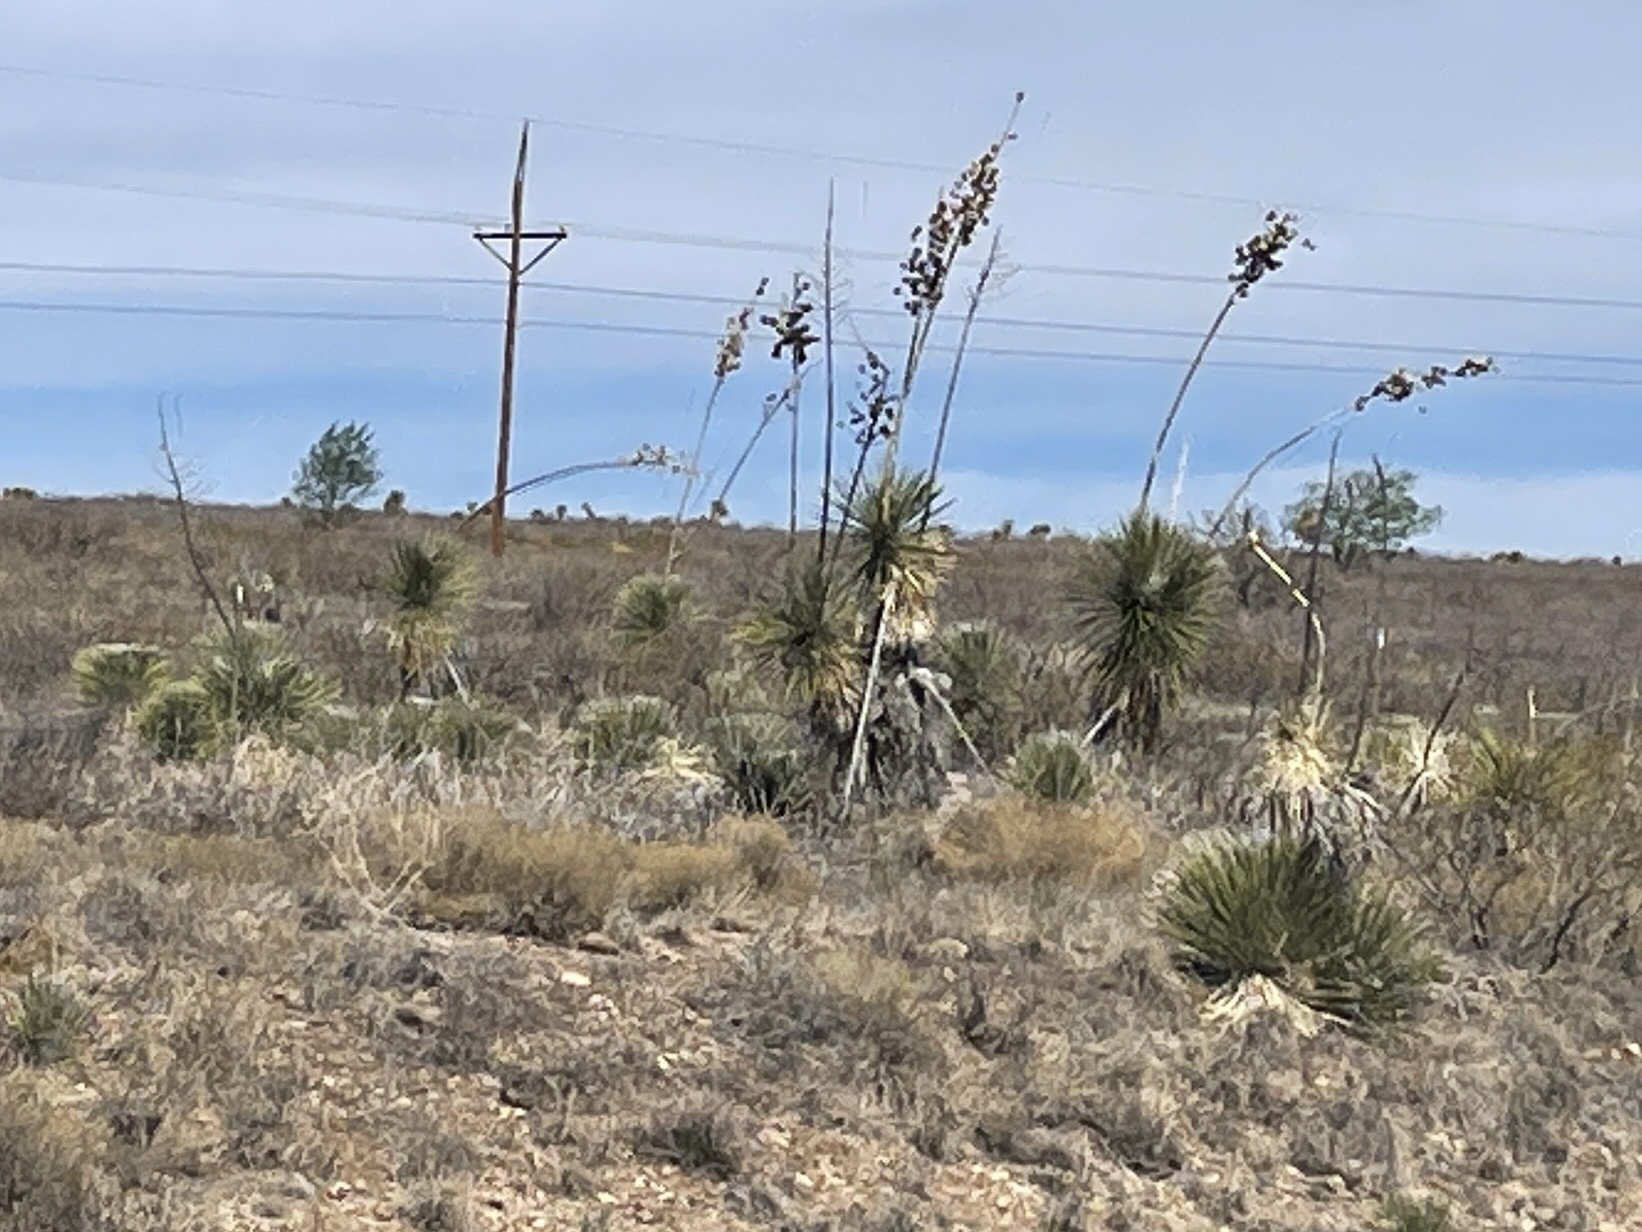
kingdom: Plantae
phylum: Tracheophyta
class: Liliopsida
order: Asparagales
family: Asparagaceae
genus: Yucca
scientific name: Yucca elata
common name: Palmella
